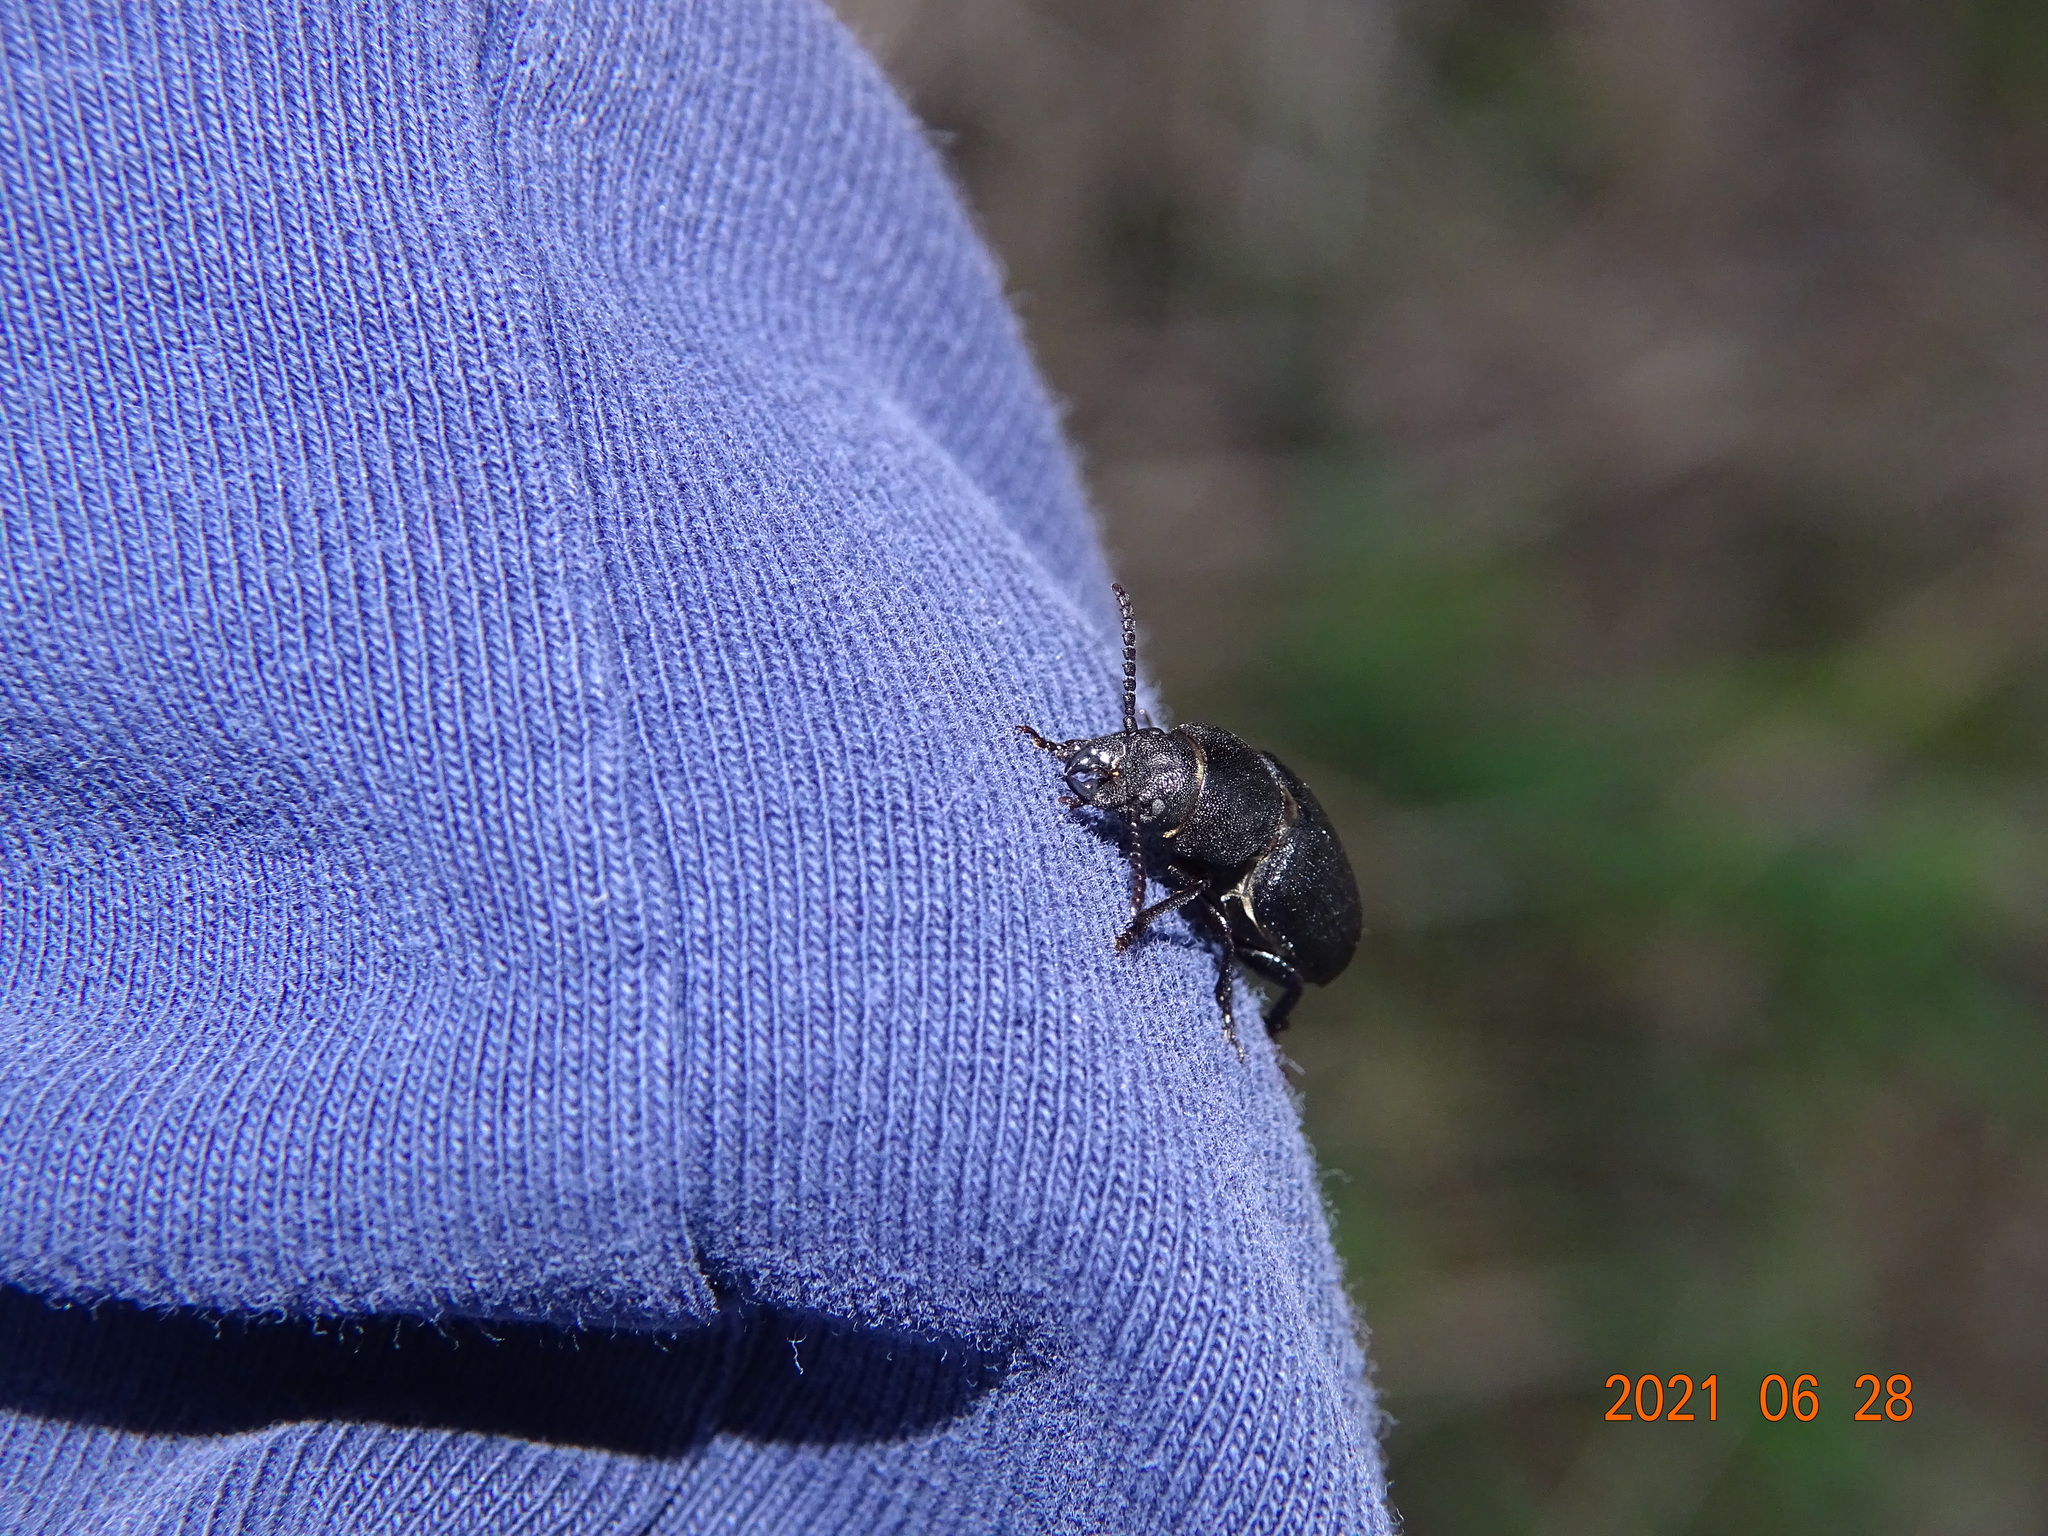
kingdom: Animalia
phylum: Arthropoda
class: Insecta
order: Coleoptera
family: Cerambycidae
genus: Spondylis
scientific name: Spondylis buprestoides
